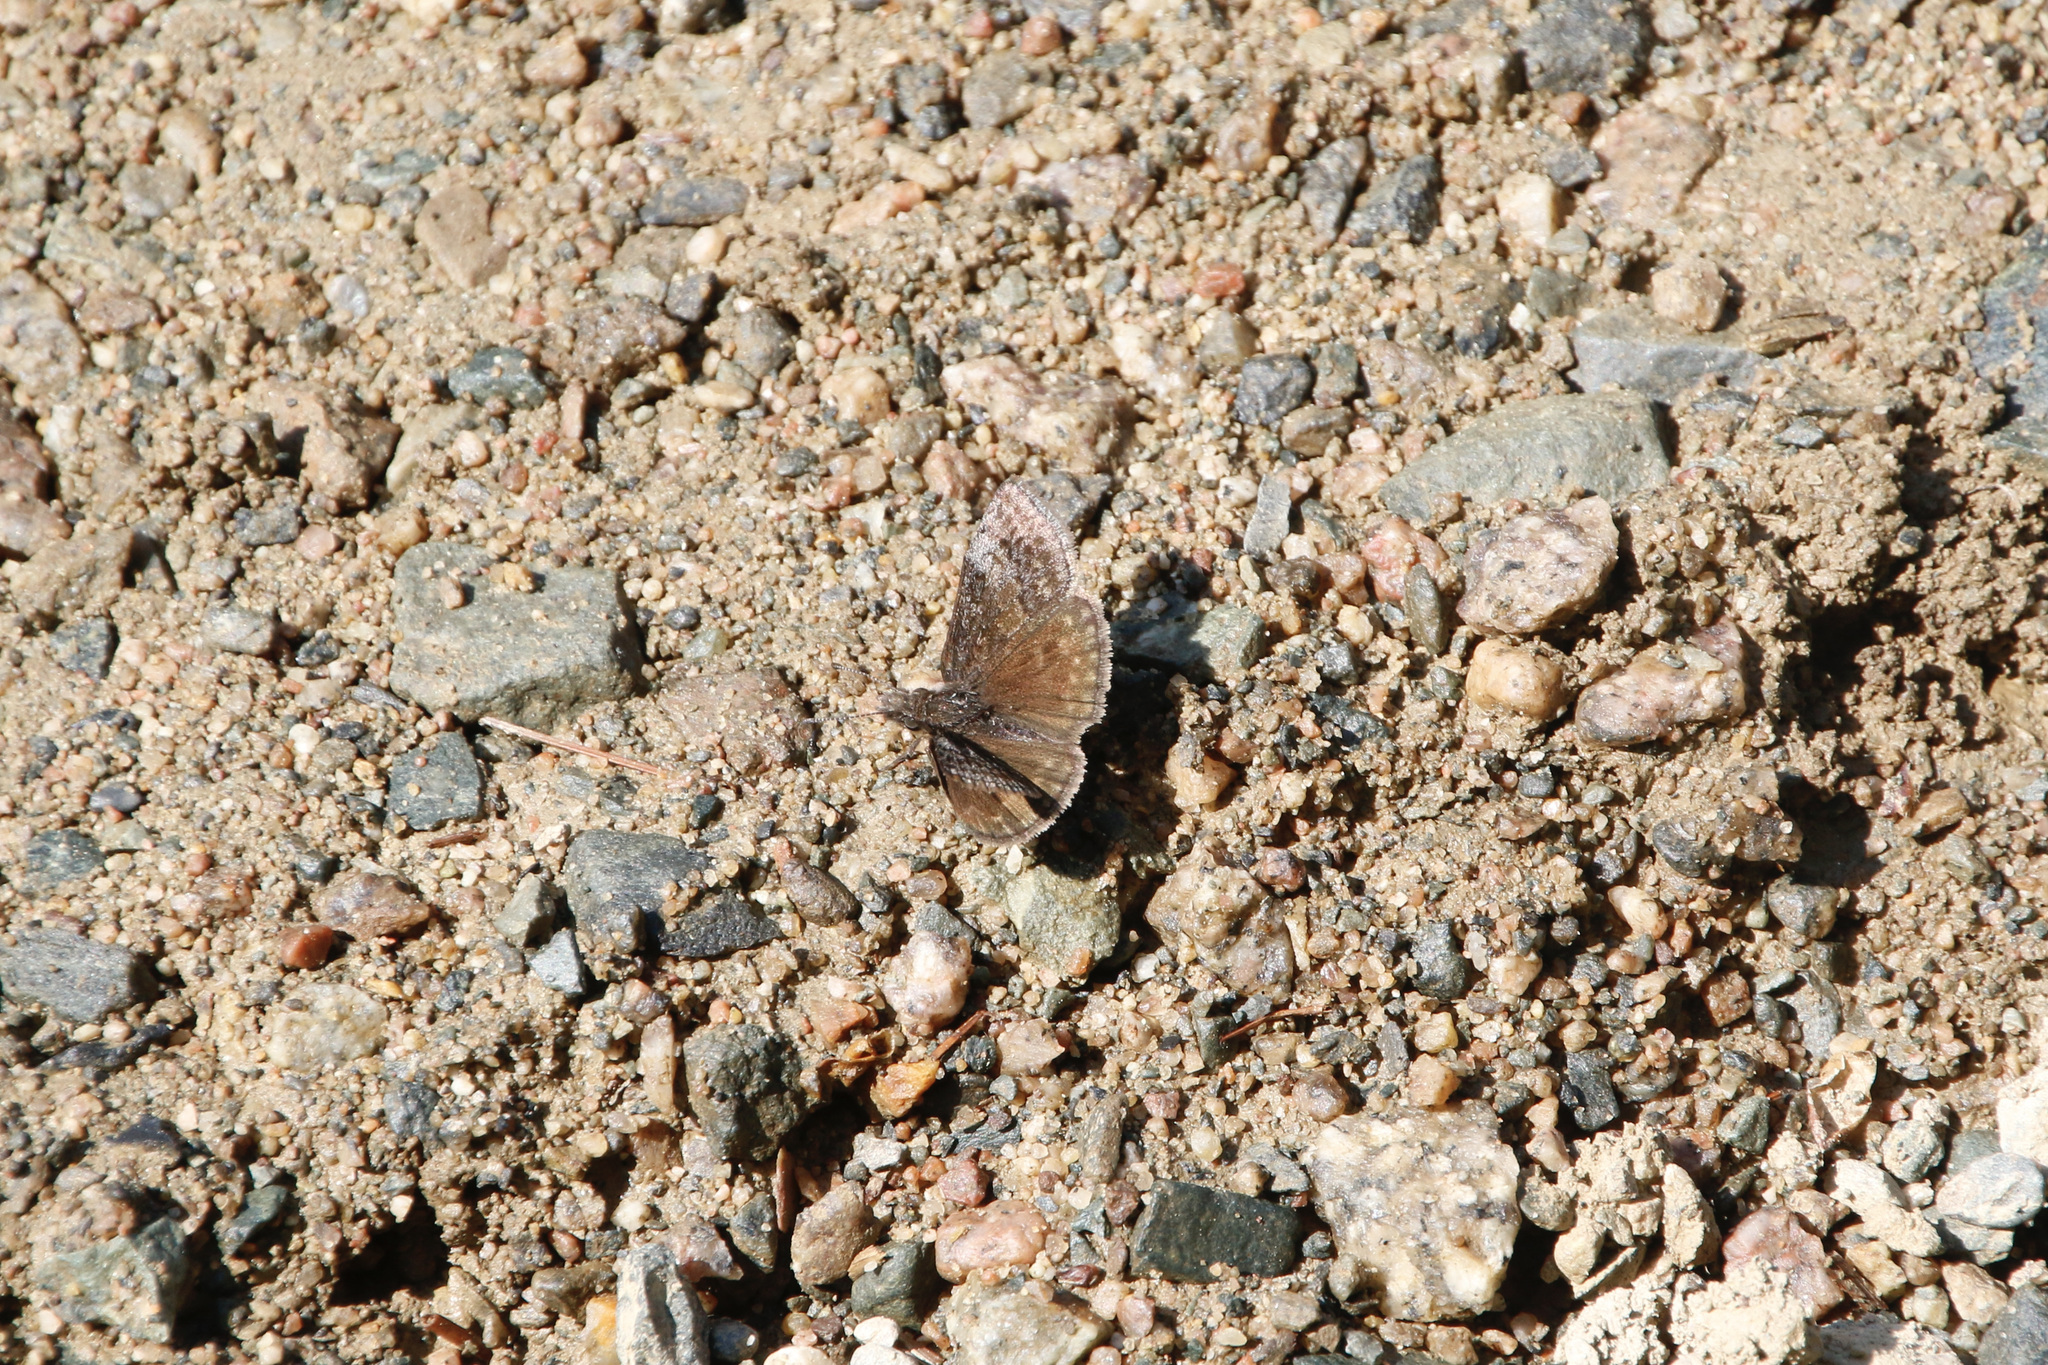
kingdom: Animalia
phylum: Arthropoda
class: Insecta
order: Lepidoptera
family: Hesperiidae
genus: Erynnis
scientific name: Erynnis icelus
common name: Dreamy duskywing
